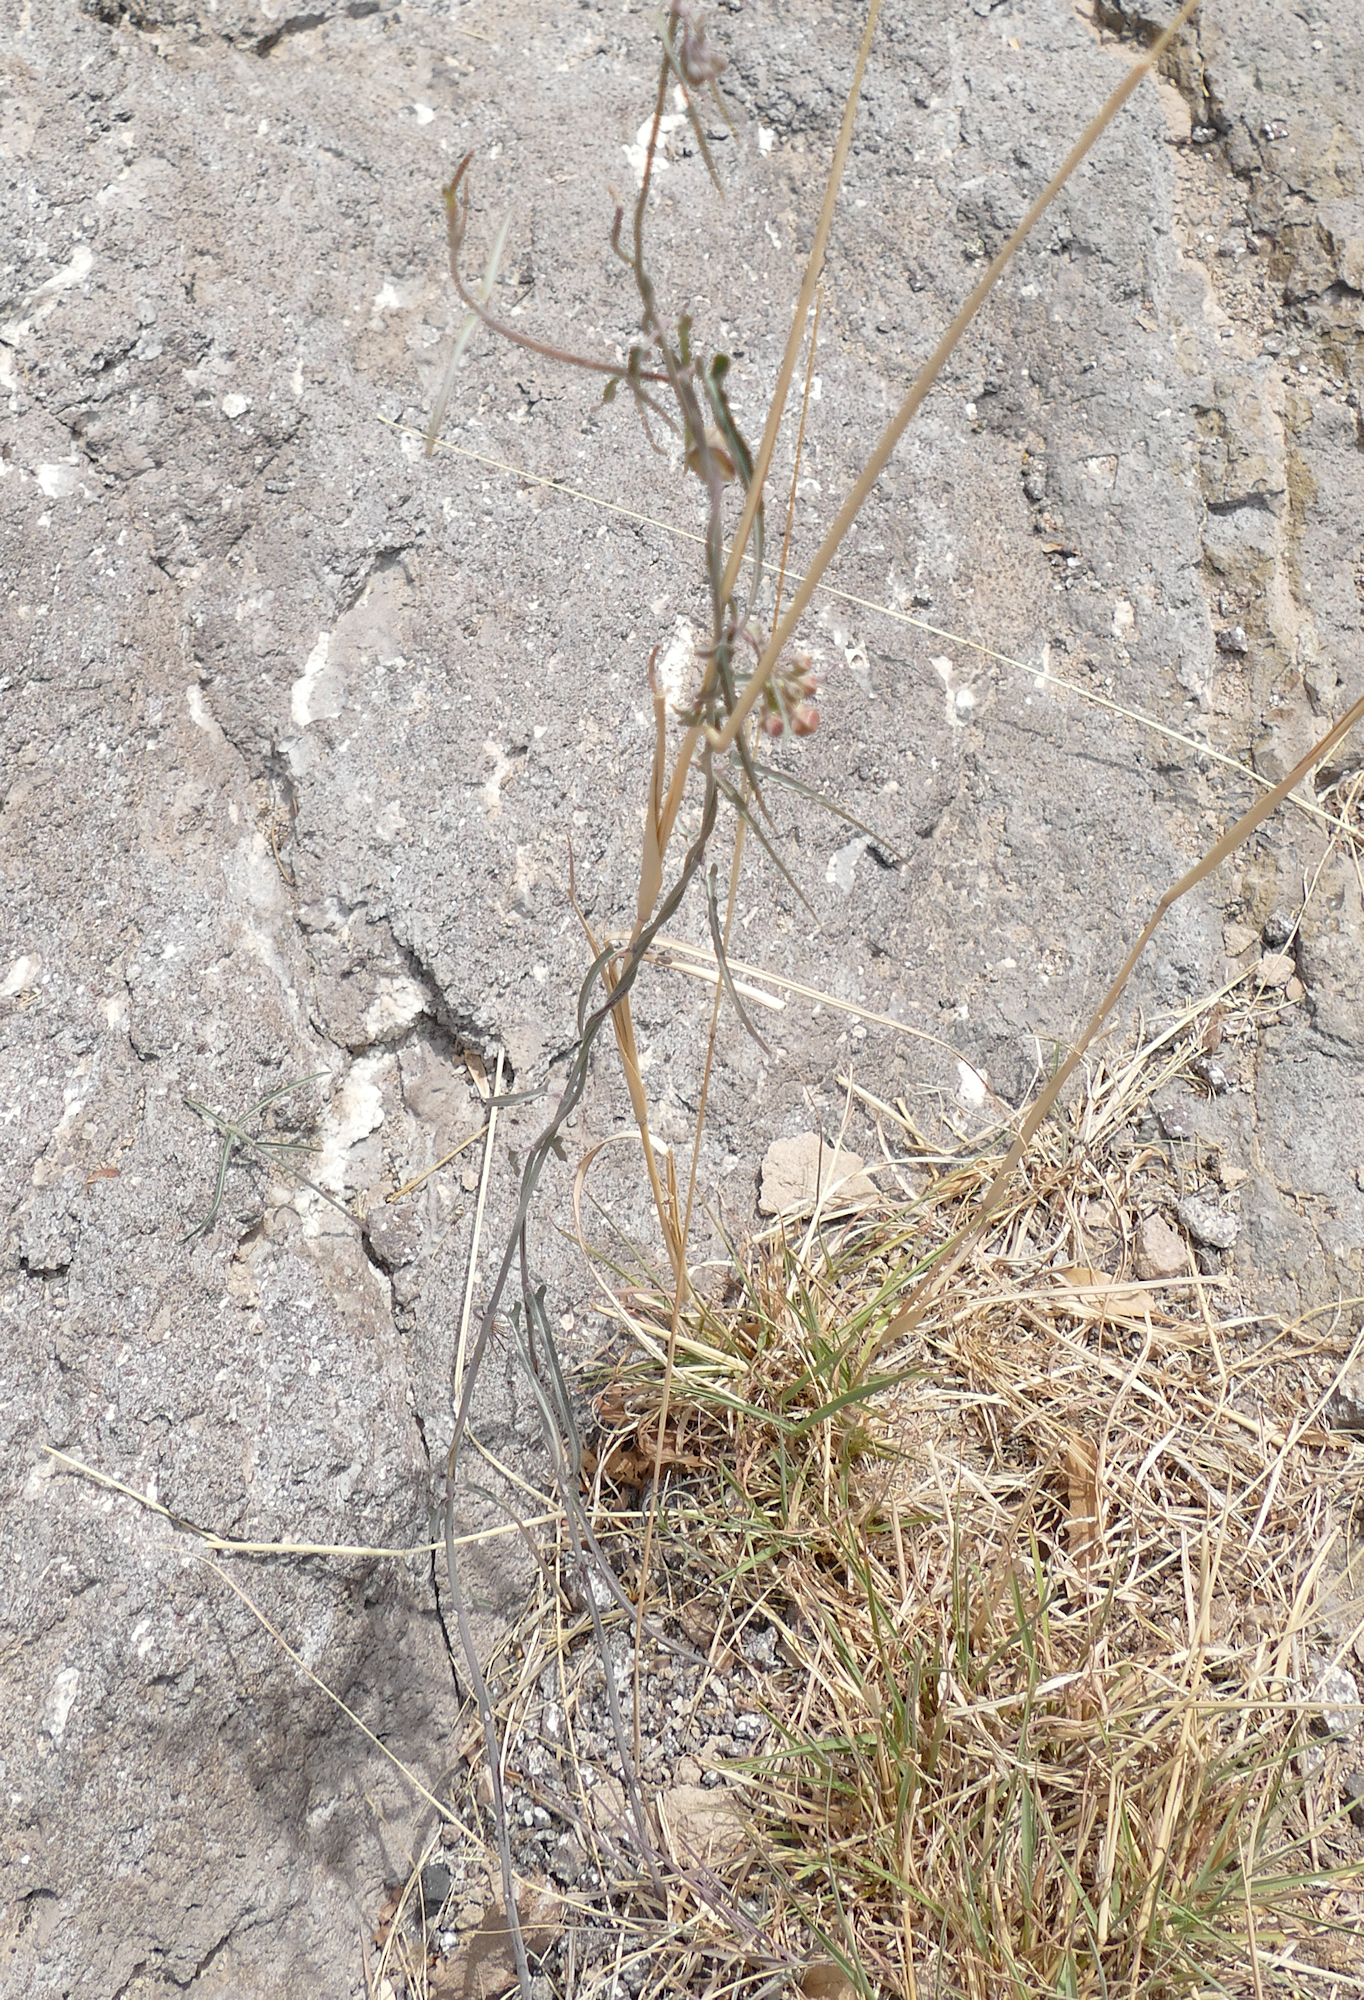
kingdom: Plantae
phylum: Tracheophyta
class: Magnoliopsida
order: Gentianales
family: Apocynaceae
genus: Funastrum
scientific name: Funastrum crispum
